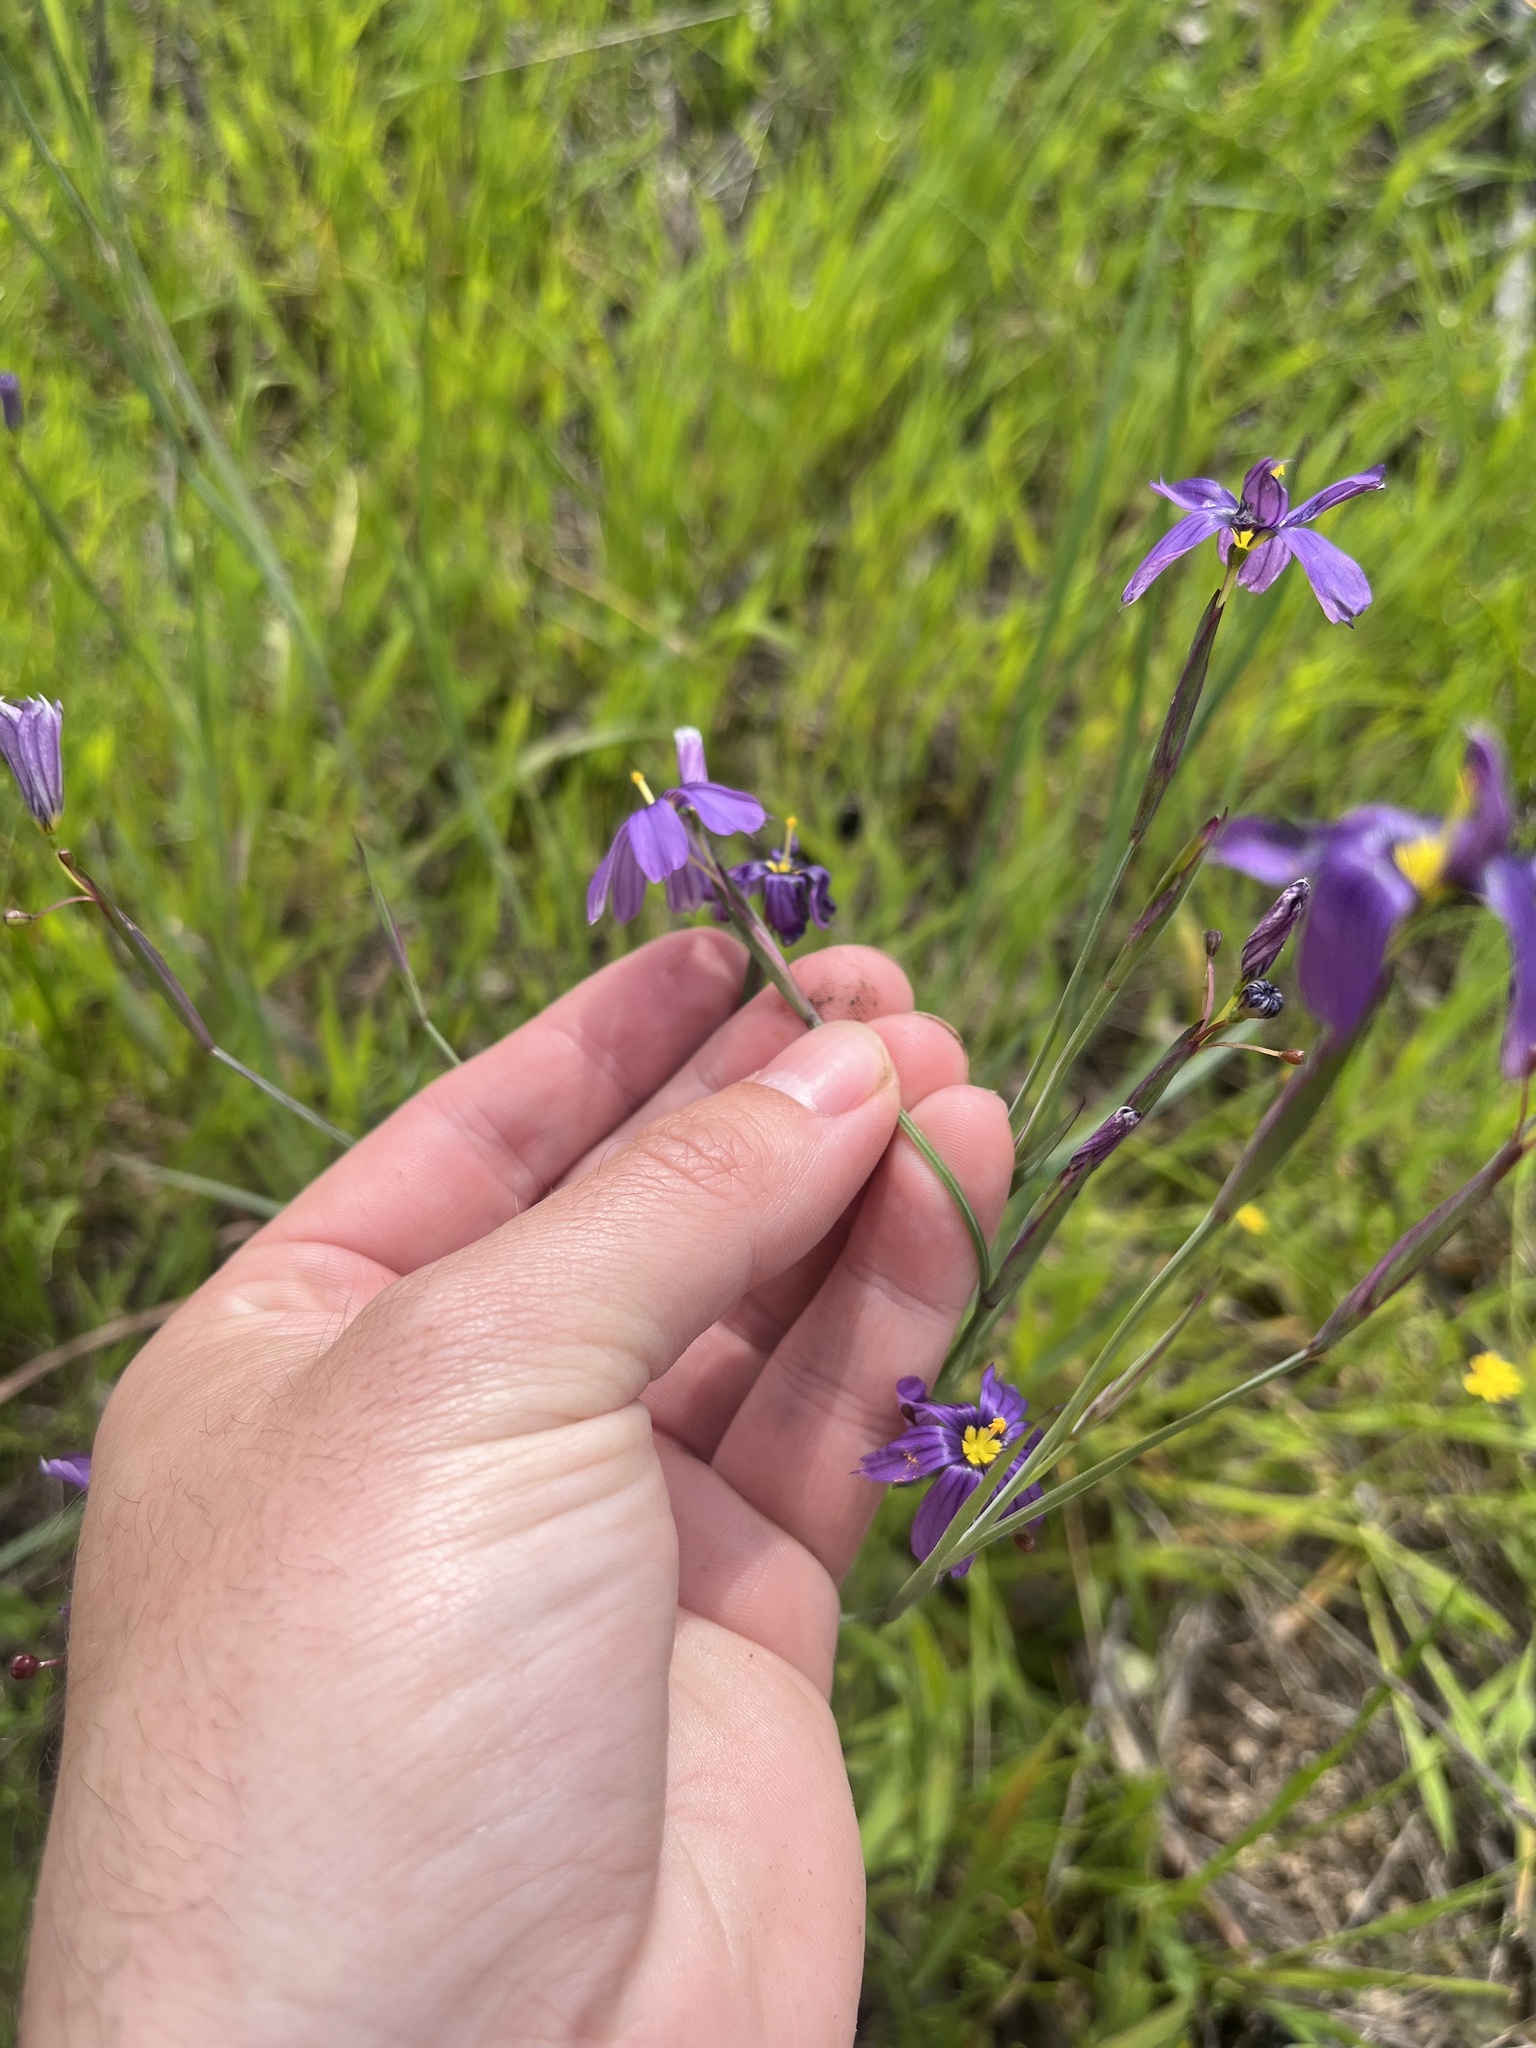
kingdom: Plantae
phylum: Tracheophyta
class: Liliopsida
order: Asparagales
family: Iridaceae
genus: Sisyrinchium
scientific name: Sisyrinchium bellum
